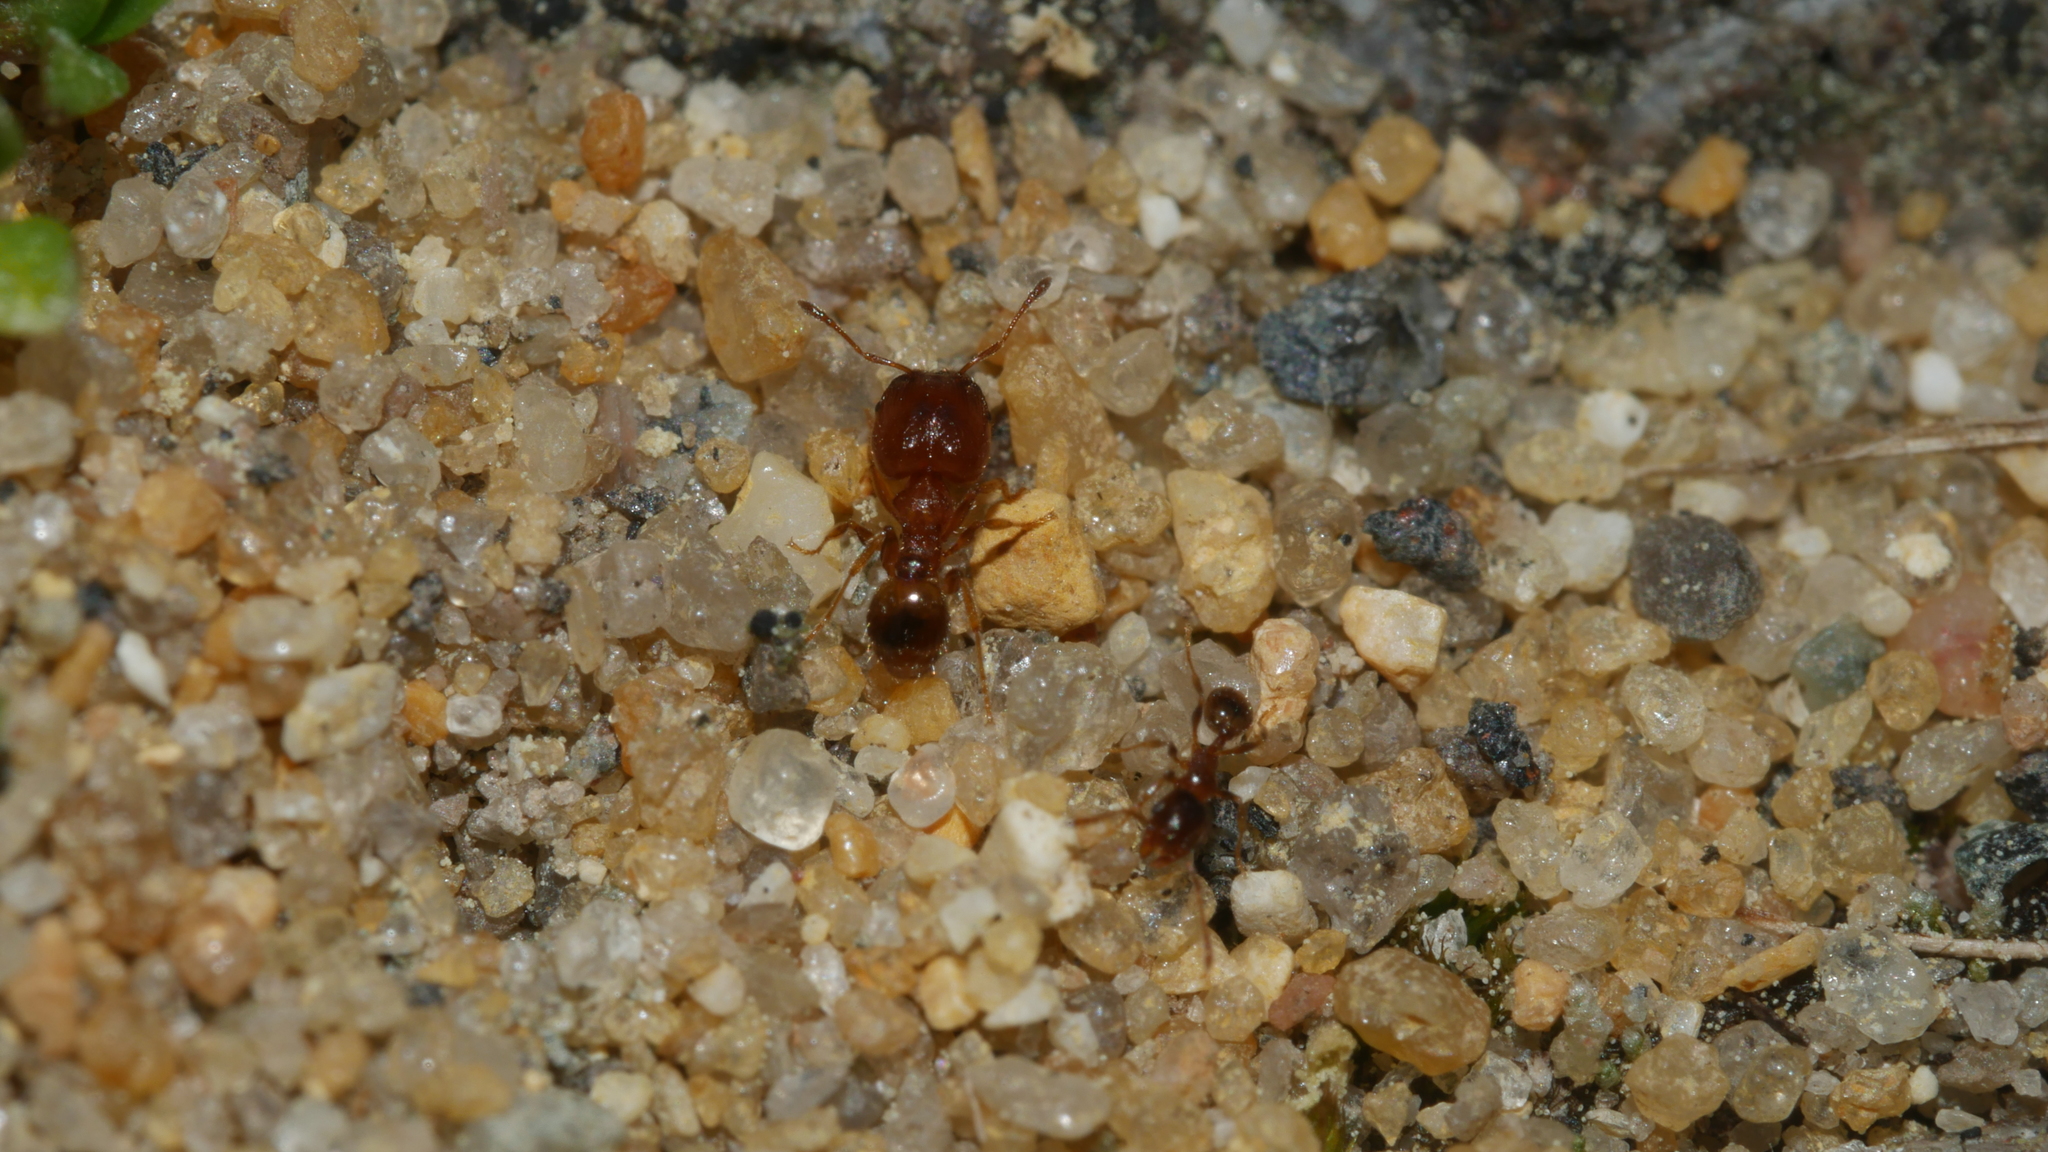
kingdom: Animalia
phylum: Arthropoda
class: Insecta
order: Hymenoptera
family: Formicidae
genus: Pheidole
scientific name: Pheidole bicarinata
